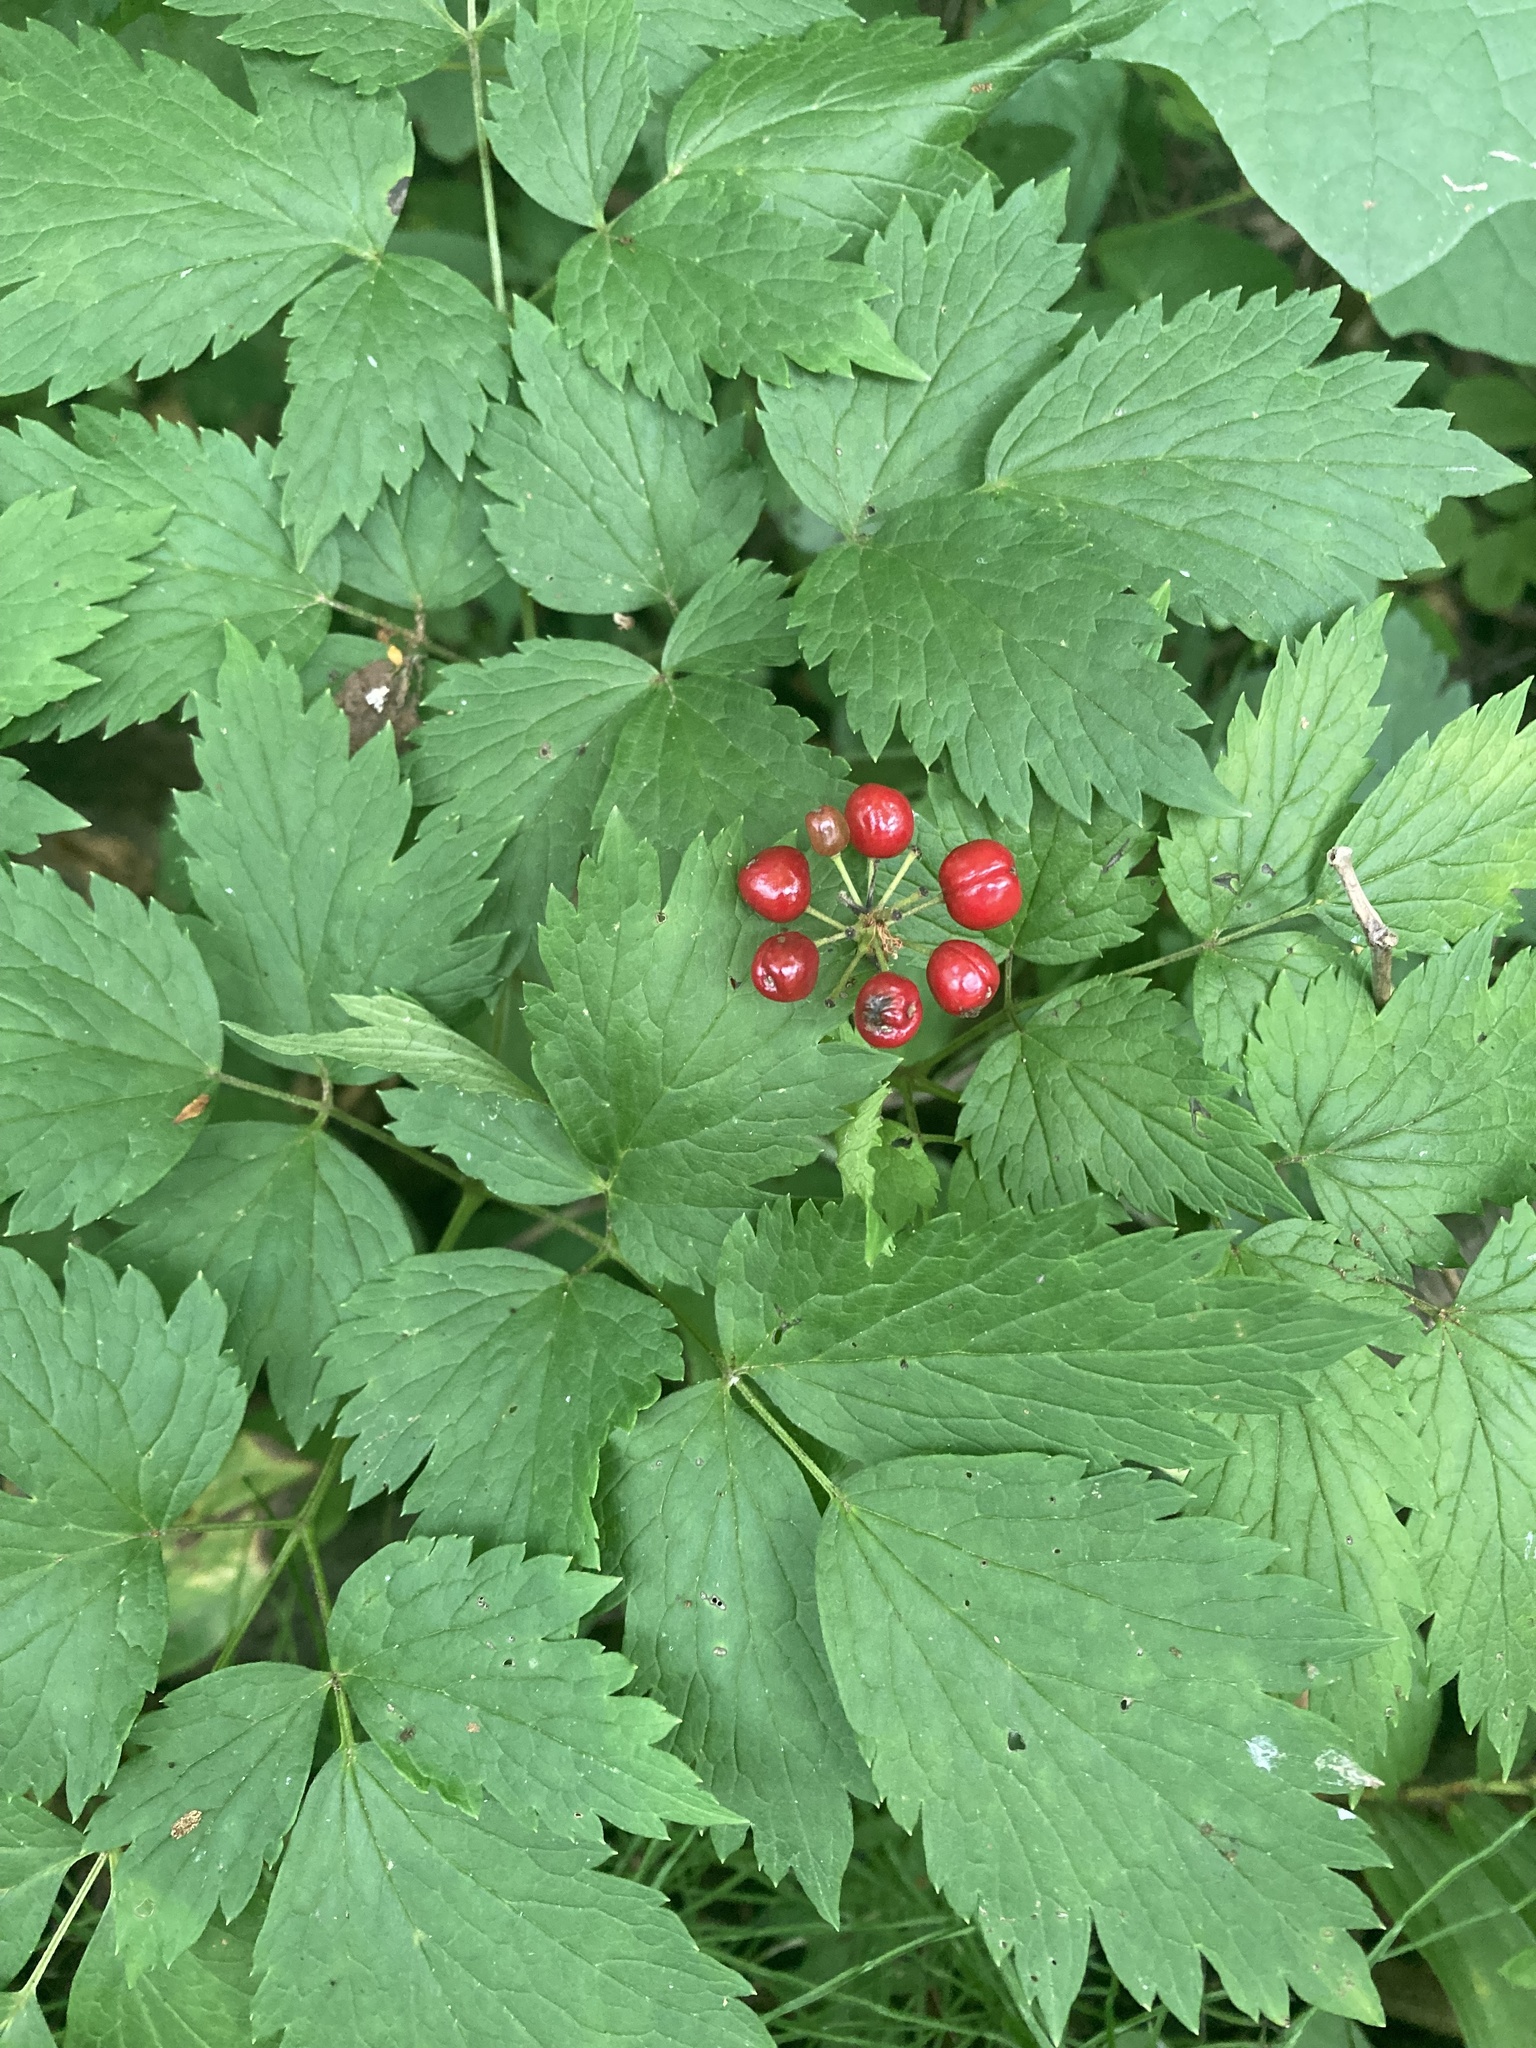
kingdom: Plantae
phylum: Tracheophyta
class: Magnoliopsida
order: Ranunculales
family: Ranunculaceae
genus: Actaea
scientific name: Actaea rubra
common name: Red baneberry
